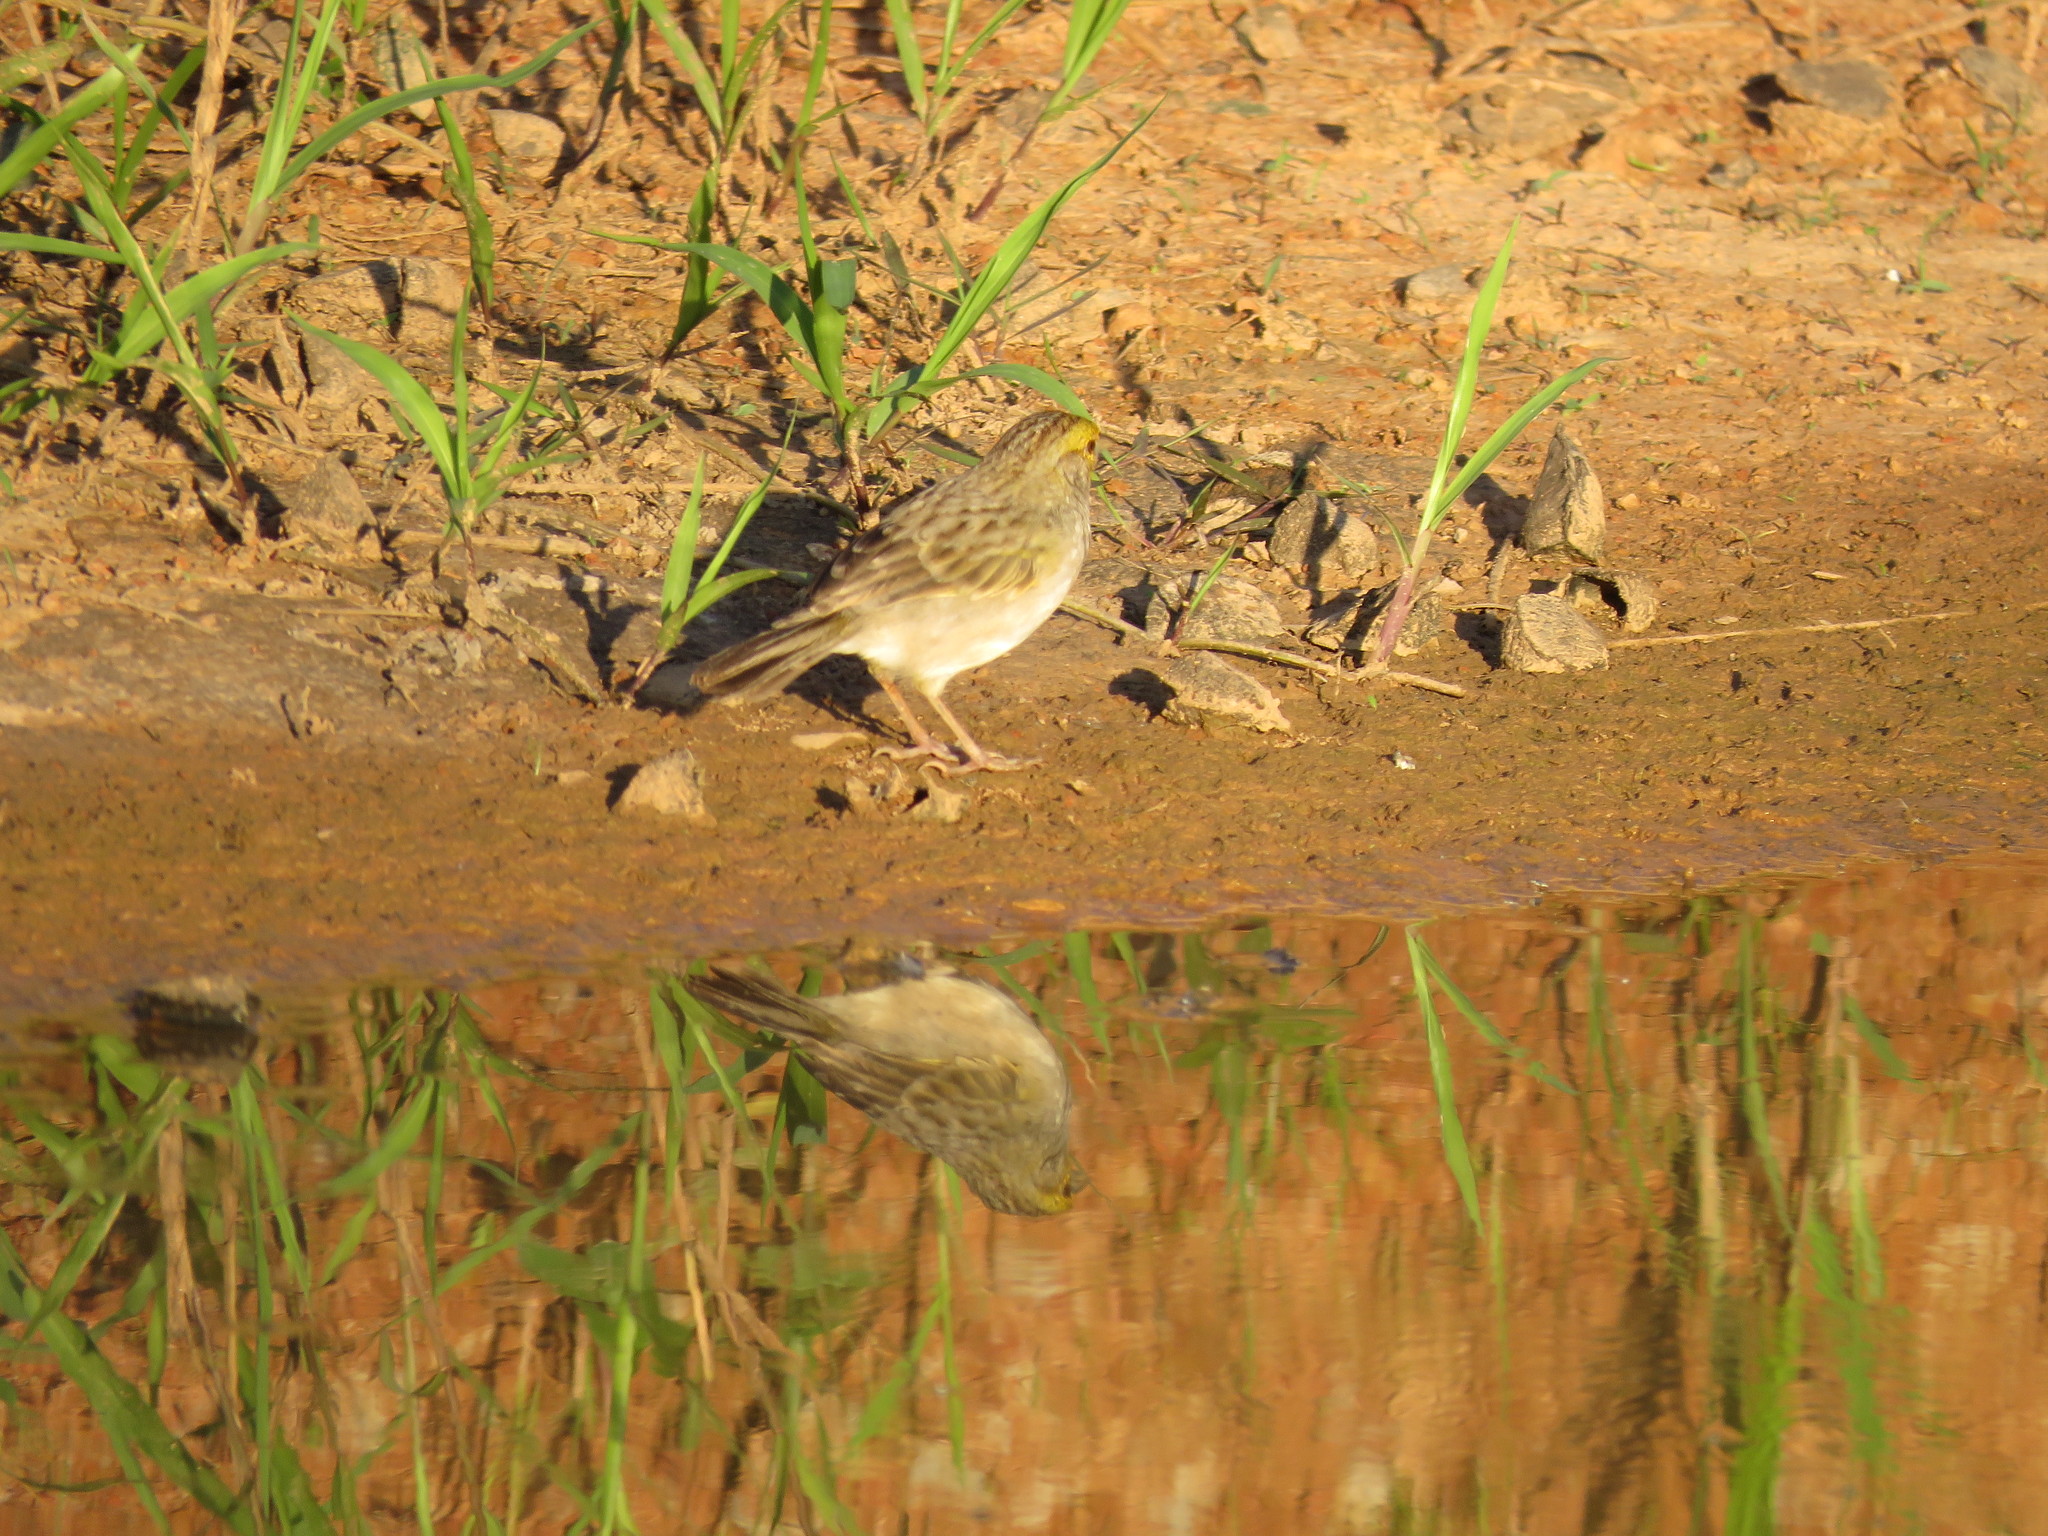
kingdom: Animalia
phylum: Chordata
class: Aves
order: Passeriformes
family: Passerellidae
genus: Ammodramus
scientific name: Ammodramus aurifrons
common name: Yellow-browed sparrow
